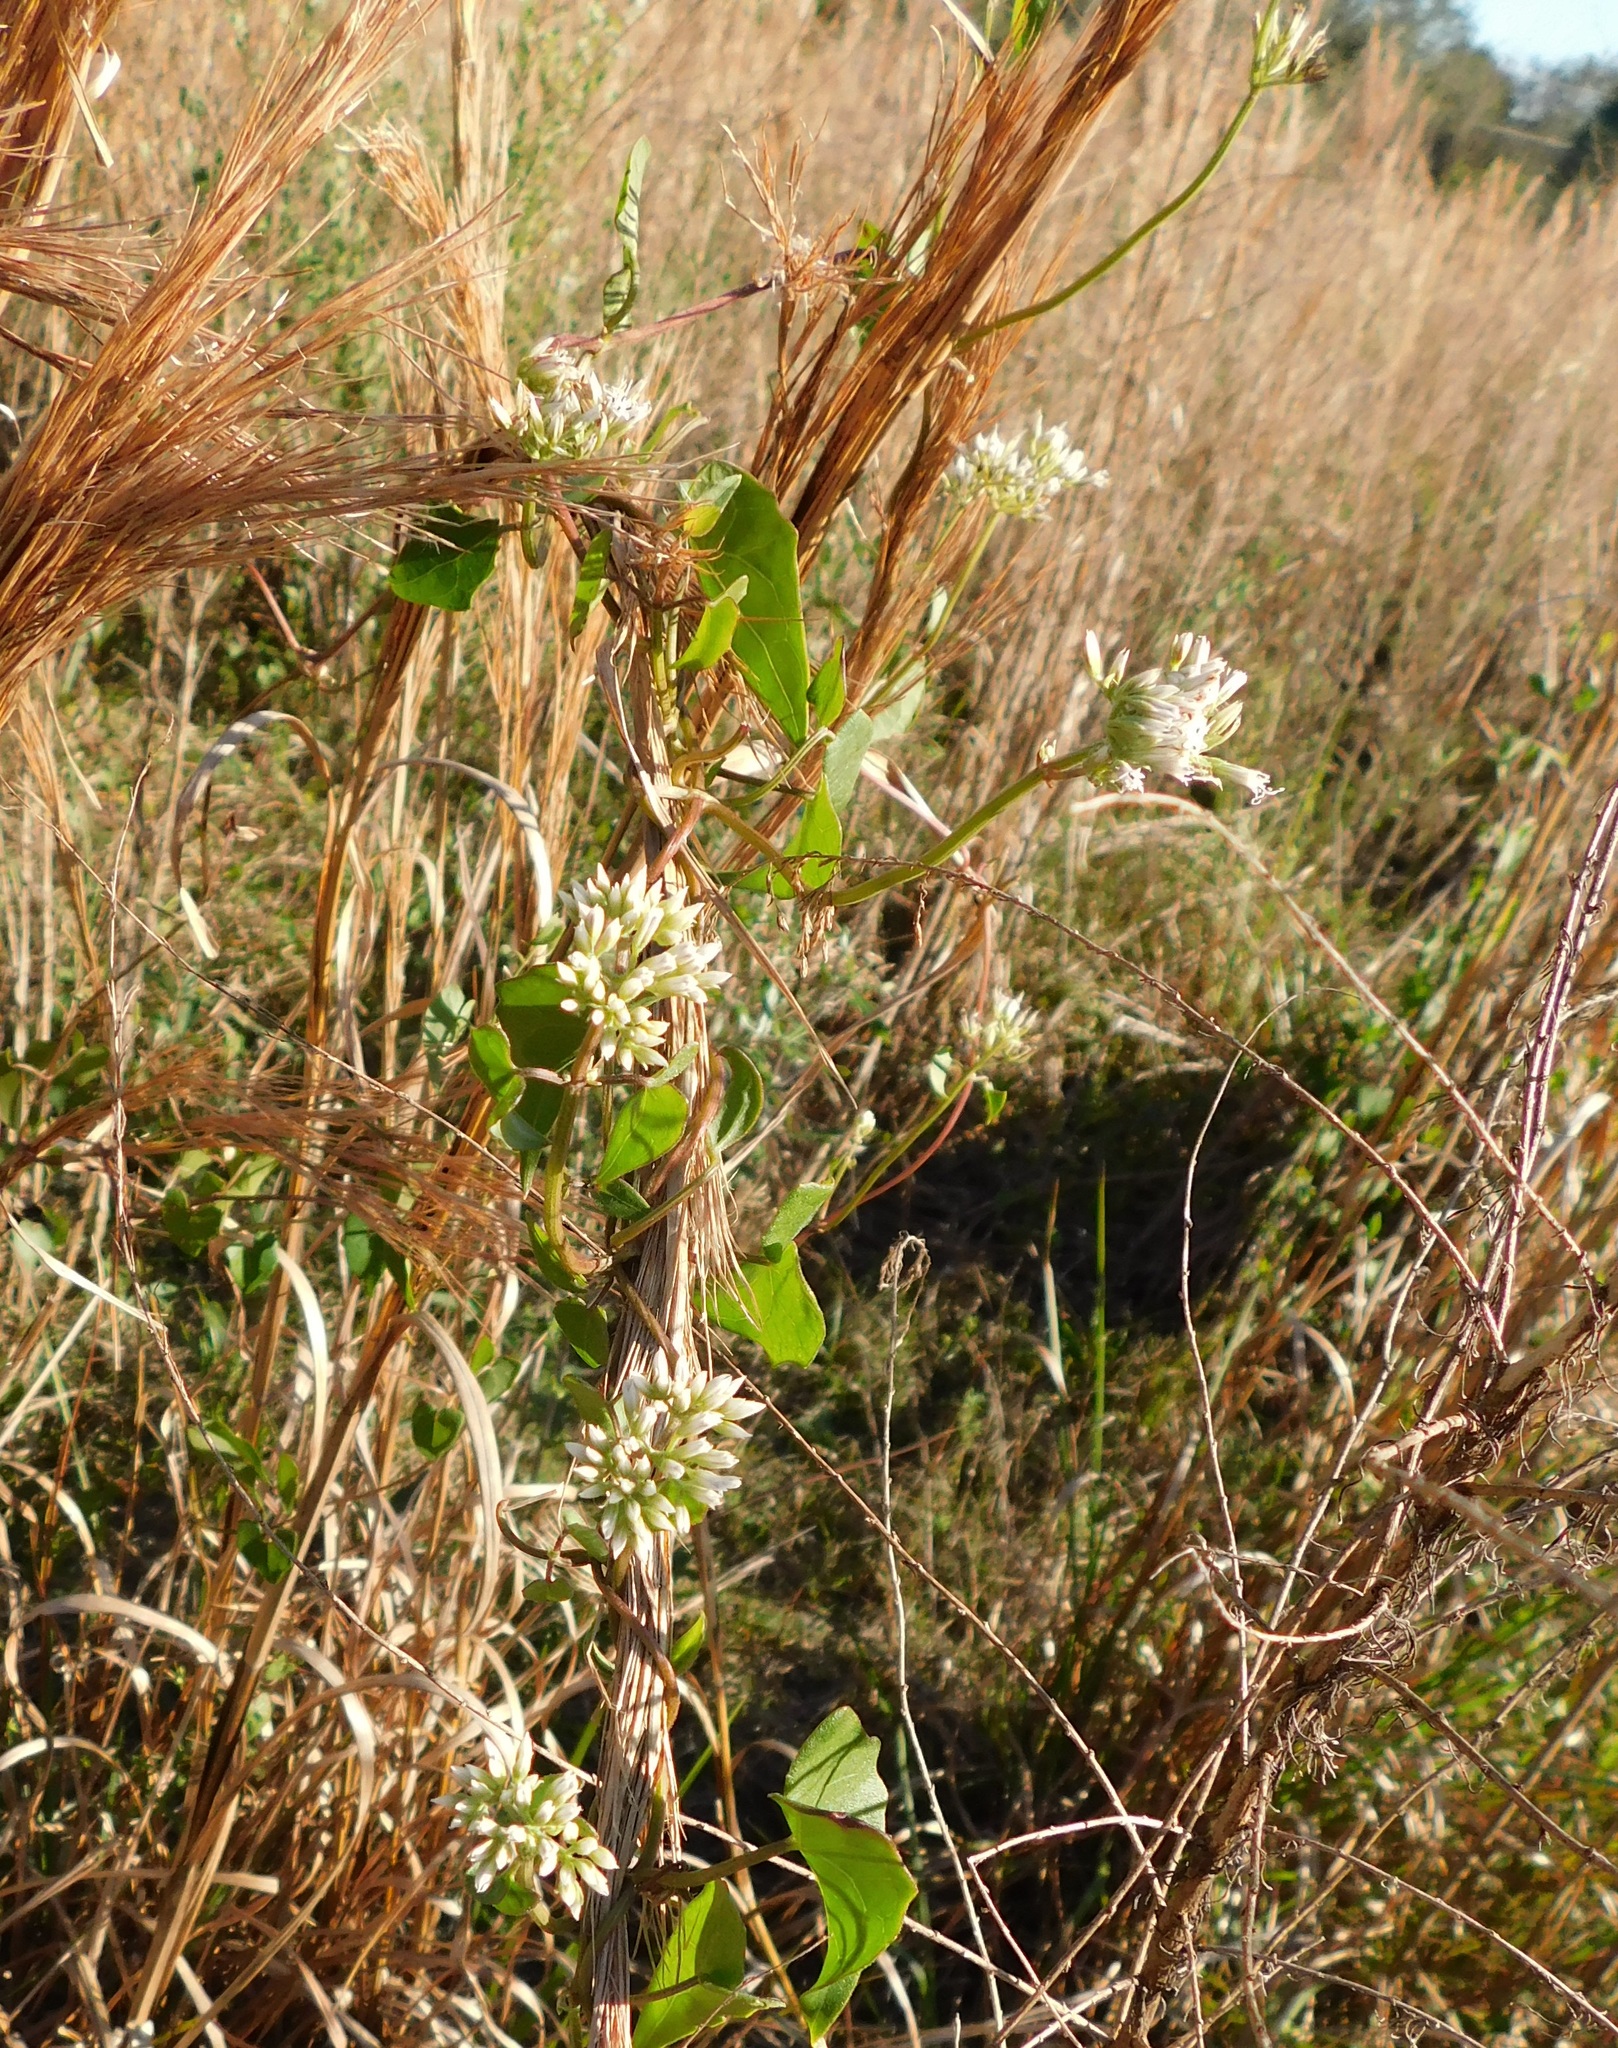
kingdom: Plantae
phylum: Tracheophyta
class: Magnoliopsida
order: Asterales
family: Asteraceae
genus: Mikania
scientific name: Mikania scandens
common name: Climbing hempvine
